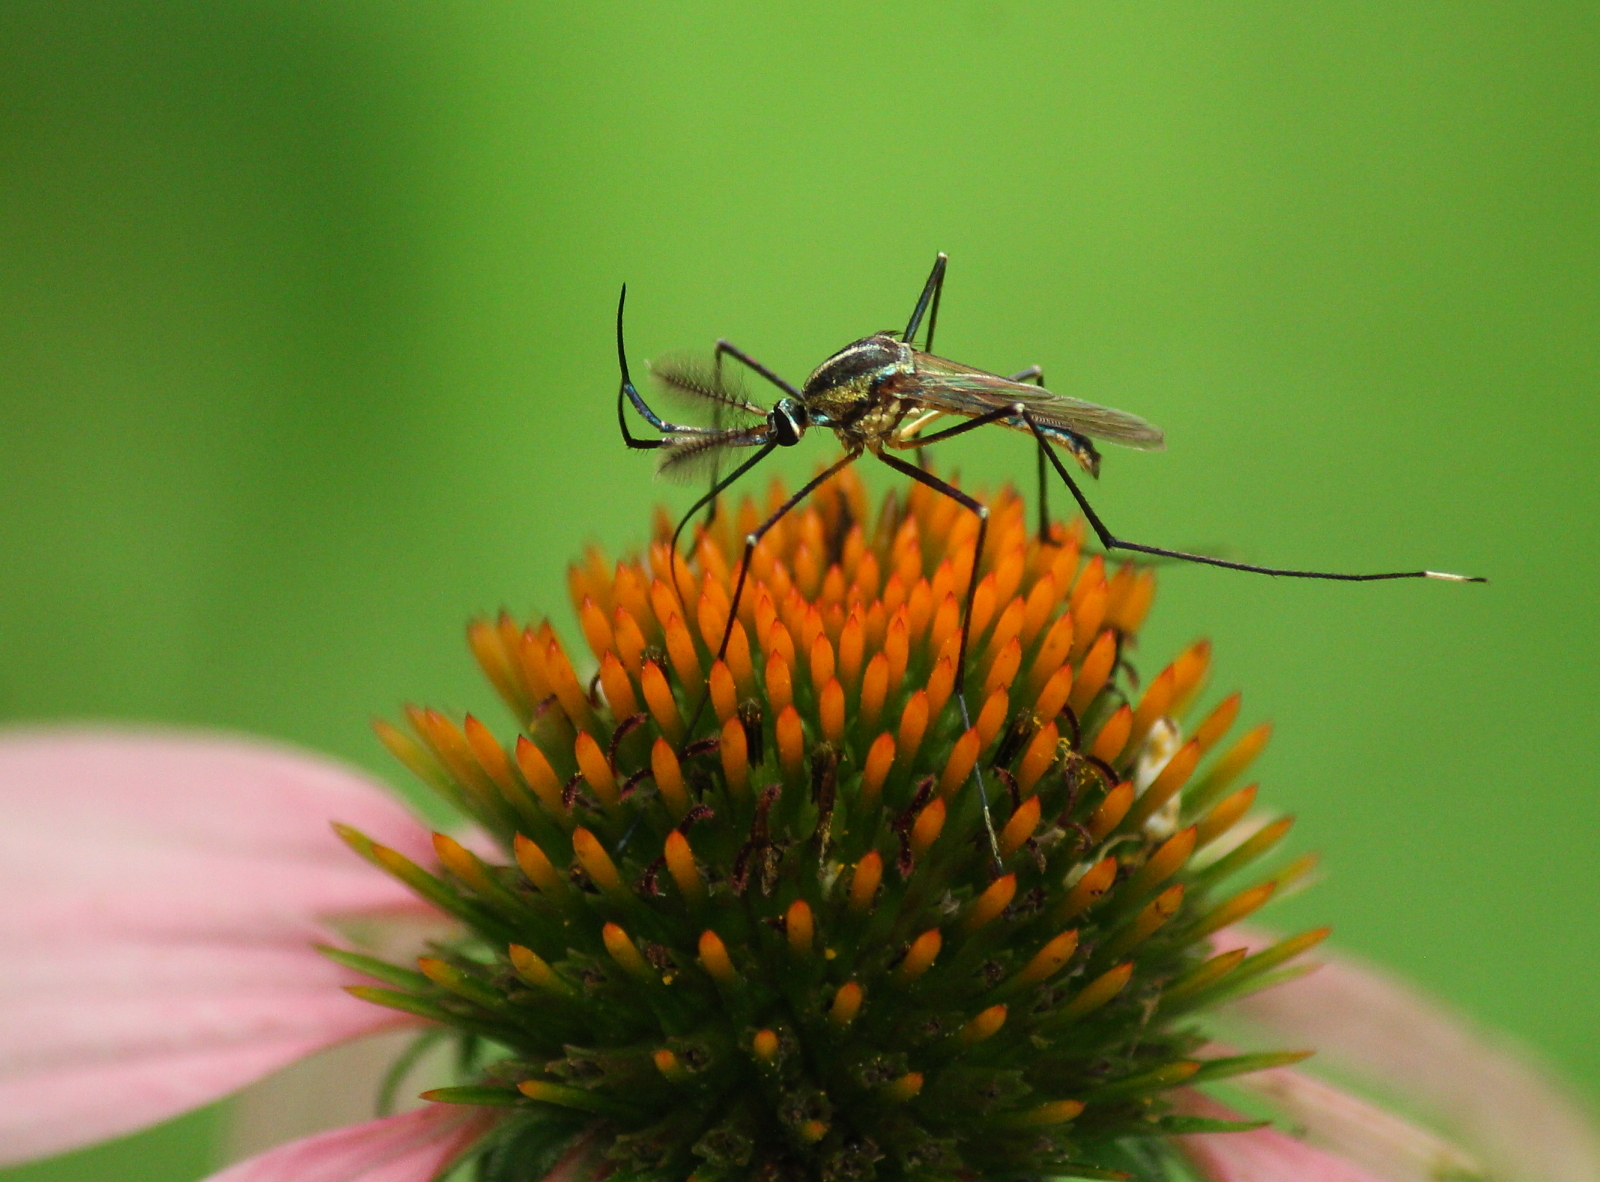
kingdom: Animalia
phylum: Arthropoda
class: Insecta
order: Diptera
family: Culicidae
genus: Toxorhynchites
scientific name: Toxorhynchites rutilus
